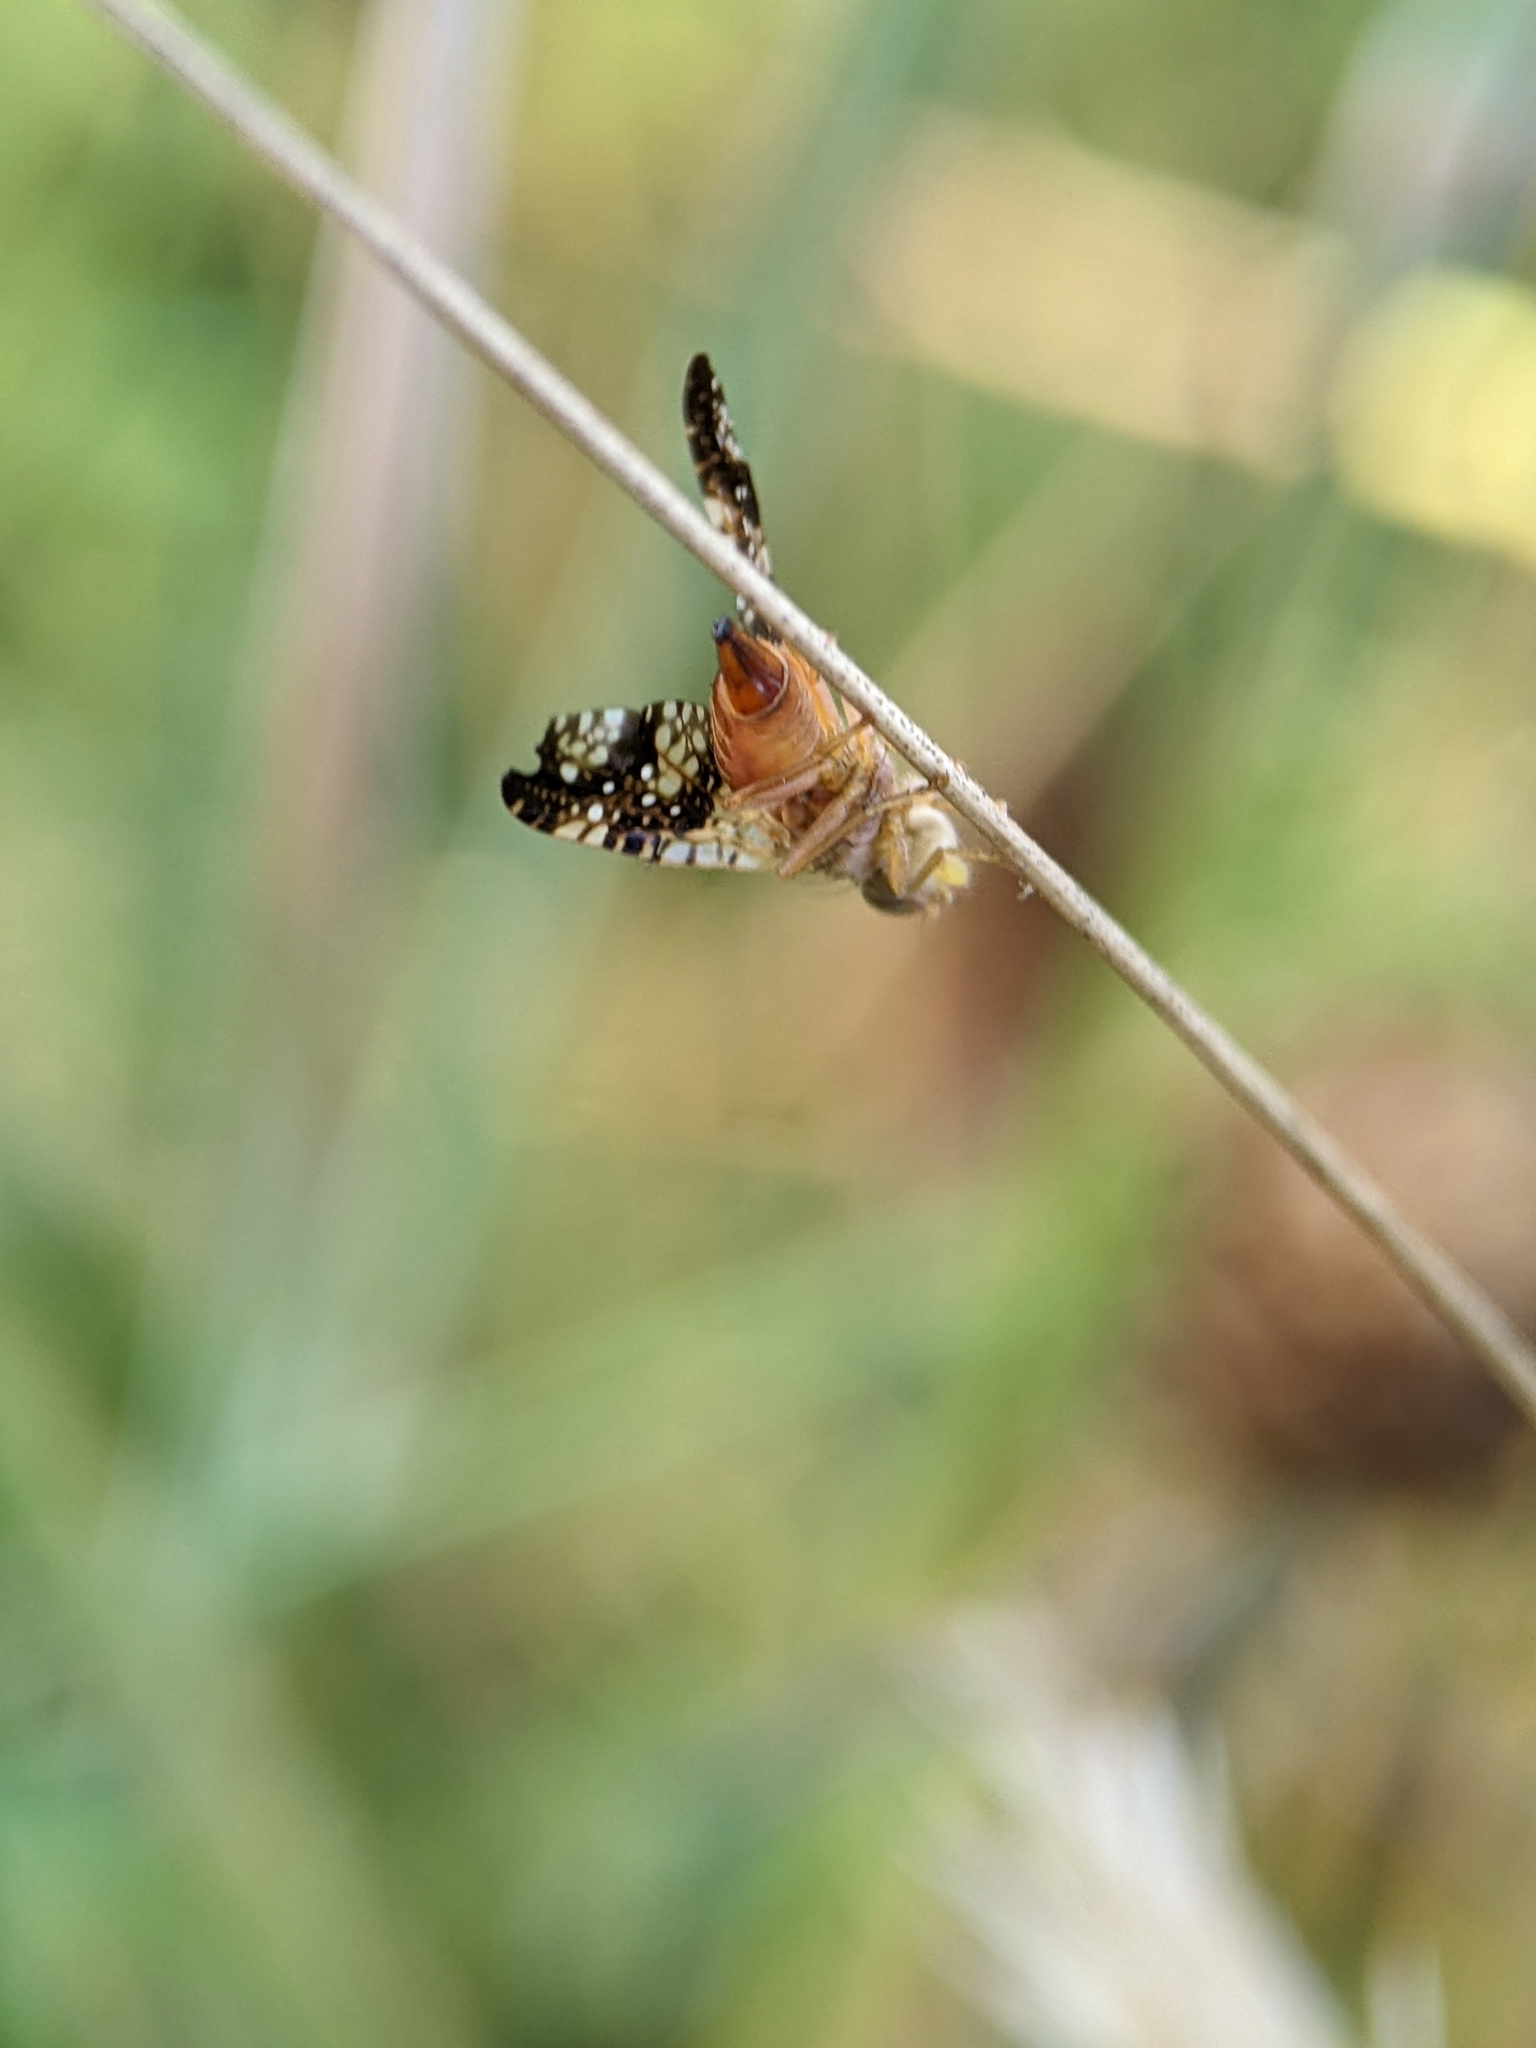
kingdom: Animalia
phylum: Arthropoda
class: Insecta
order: Diptera
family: Tephritidae
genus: Acinia
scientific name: Acinia corniculata
